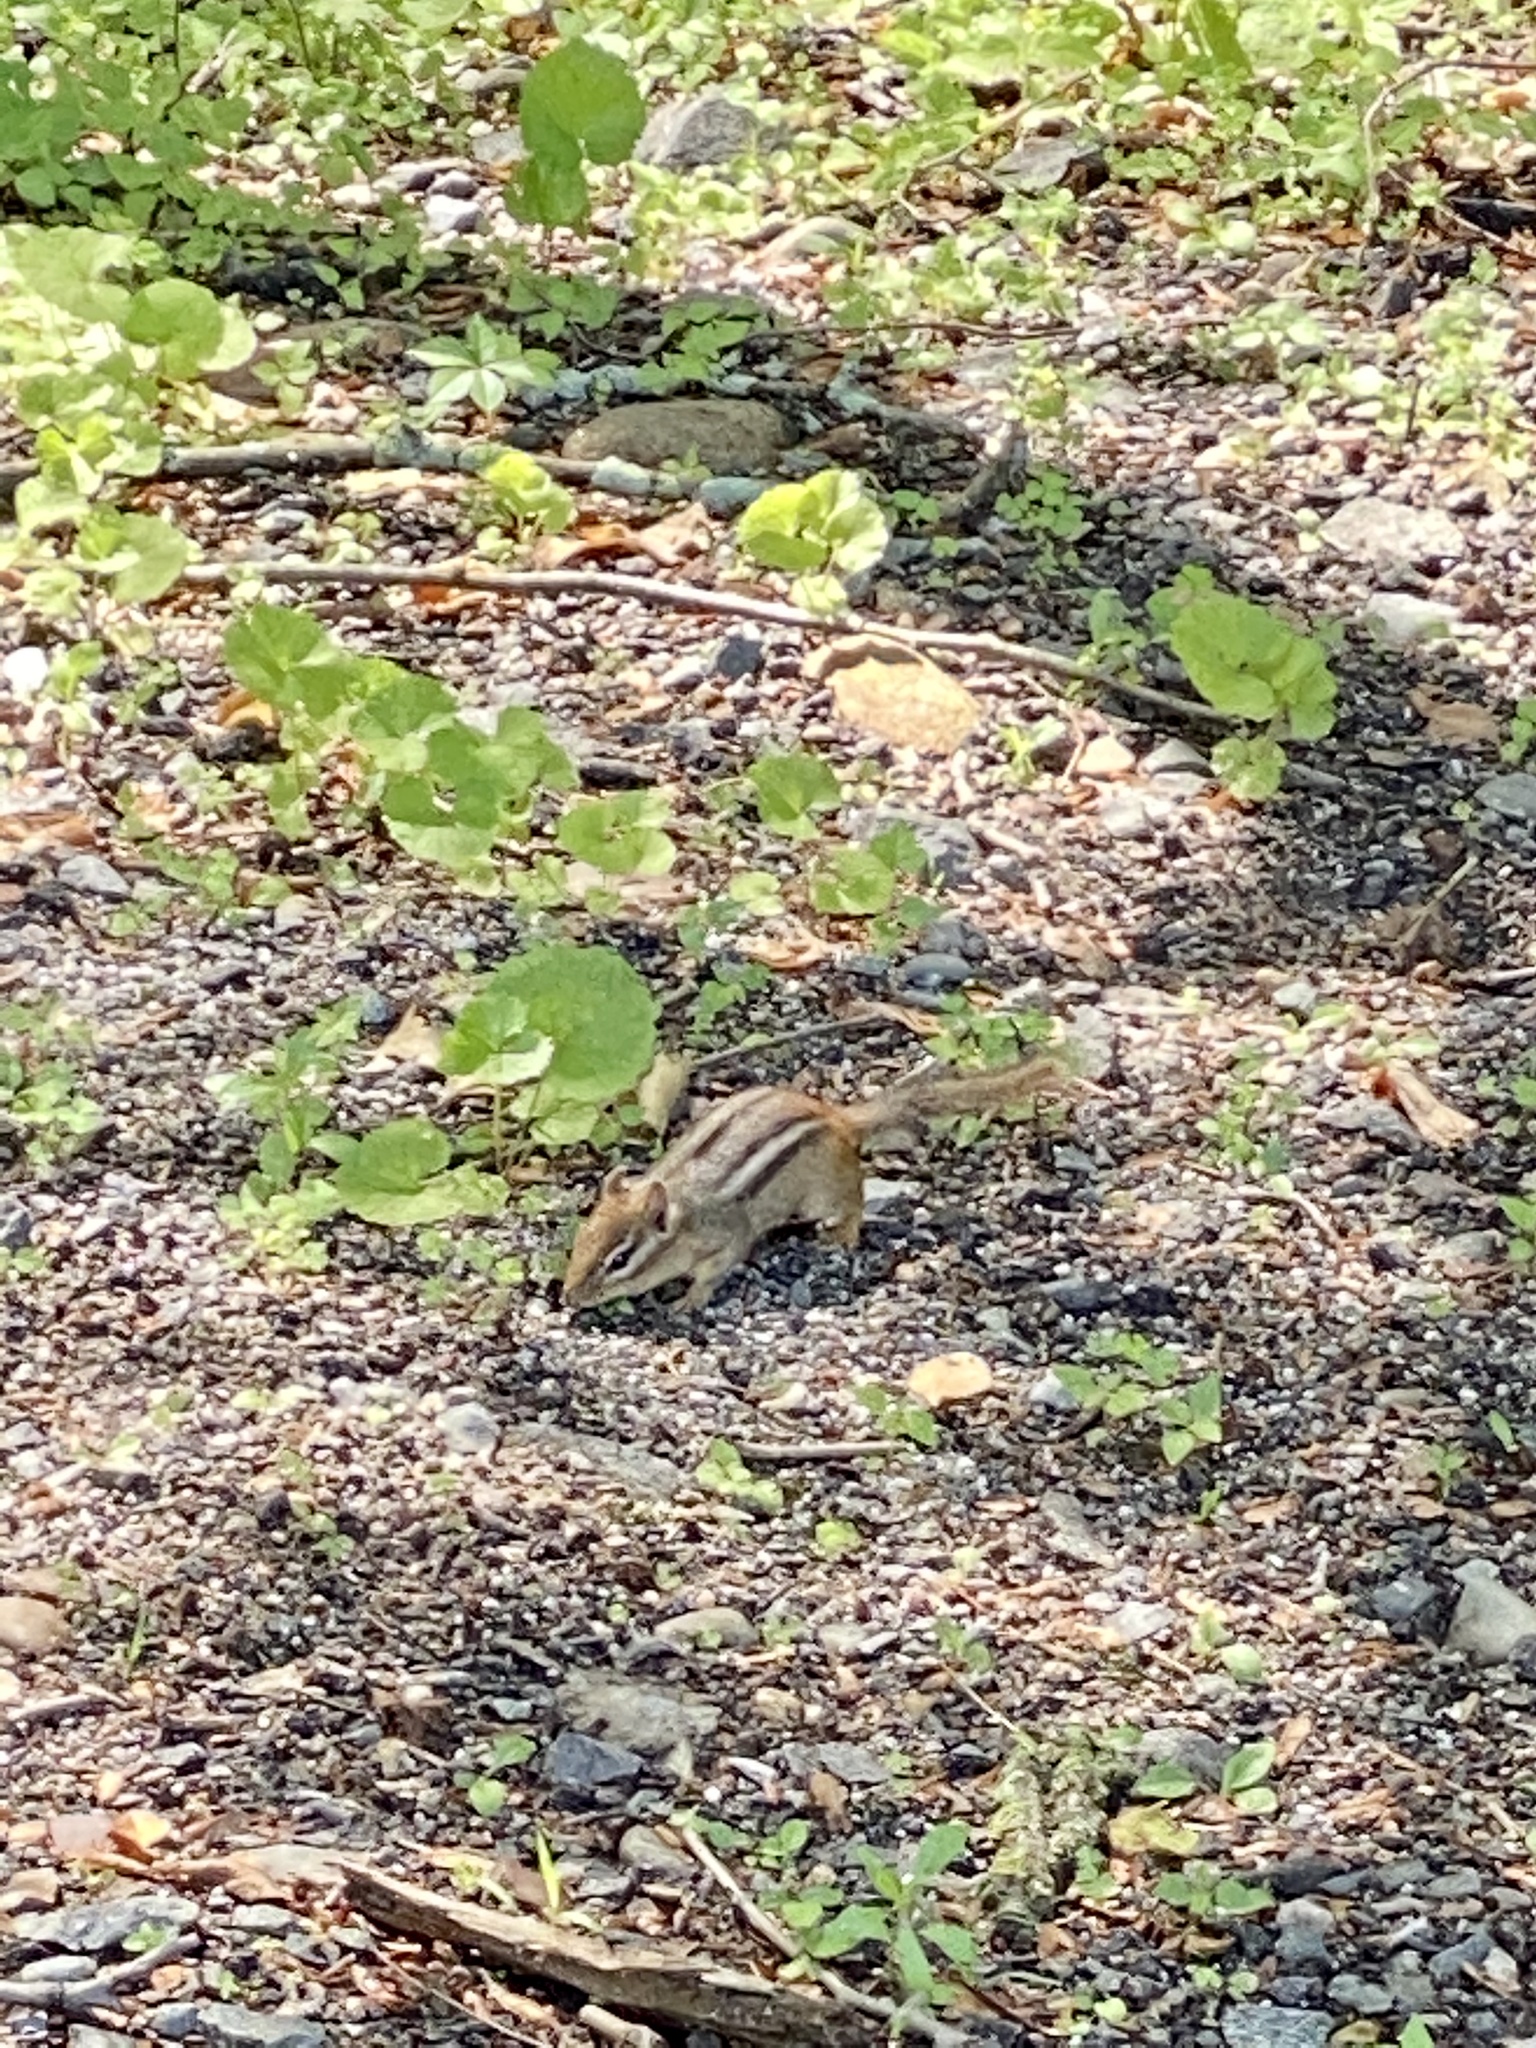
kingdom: Animalia
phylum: Chordata
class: Mammalia
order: Rodentia
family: Sciuridae
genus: Tamias
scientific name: Tamias striatus
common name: Eastern chipmunk
